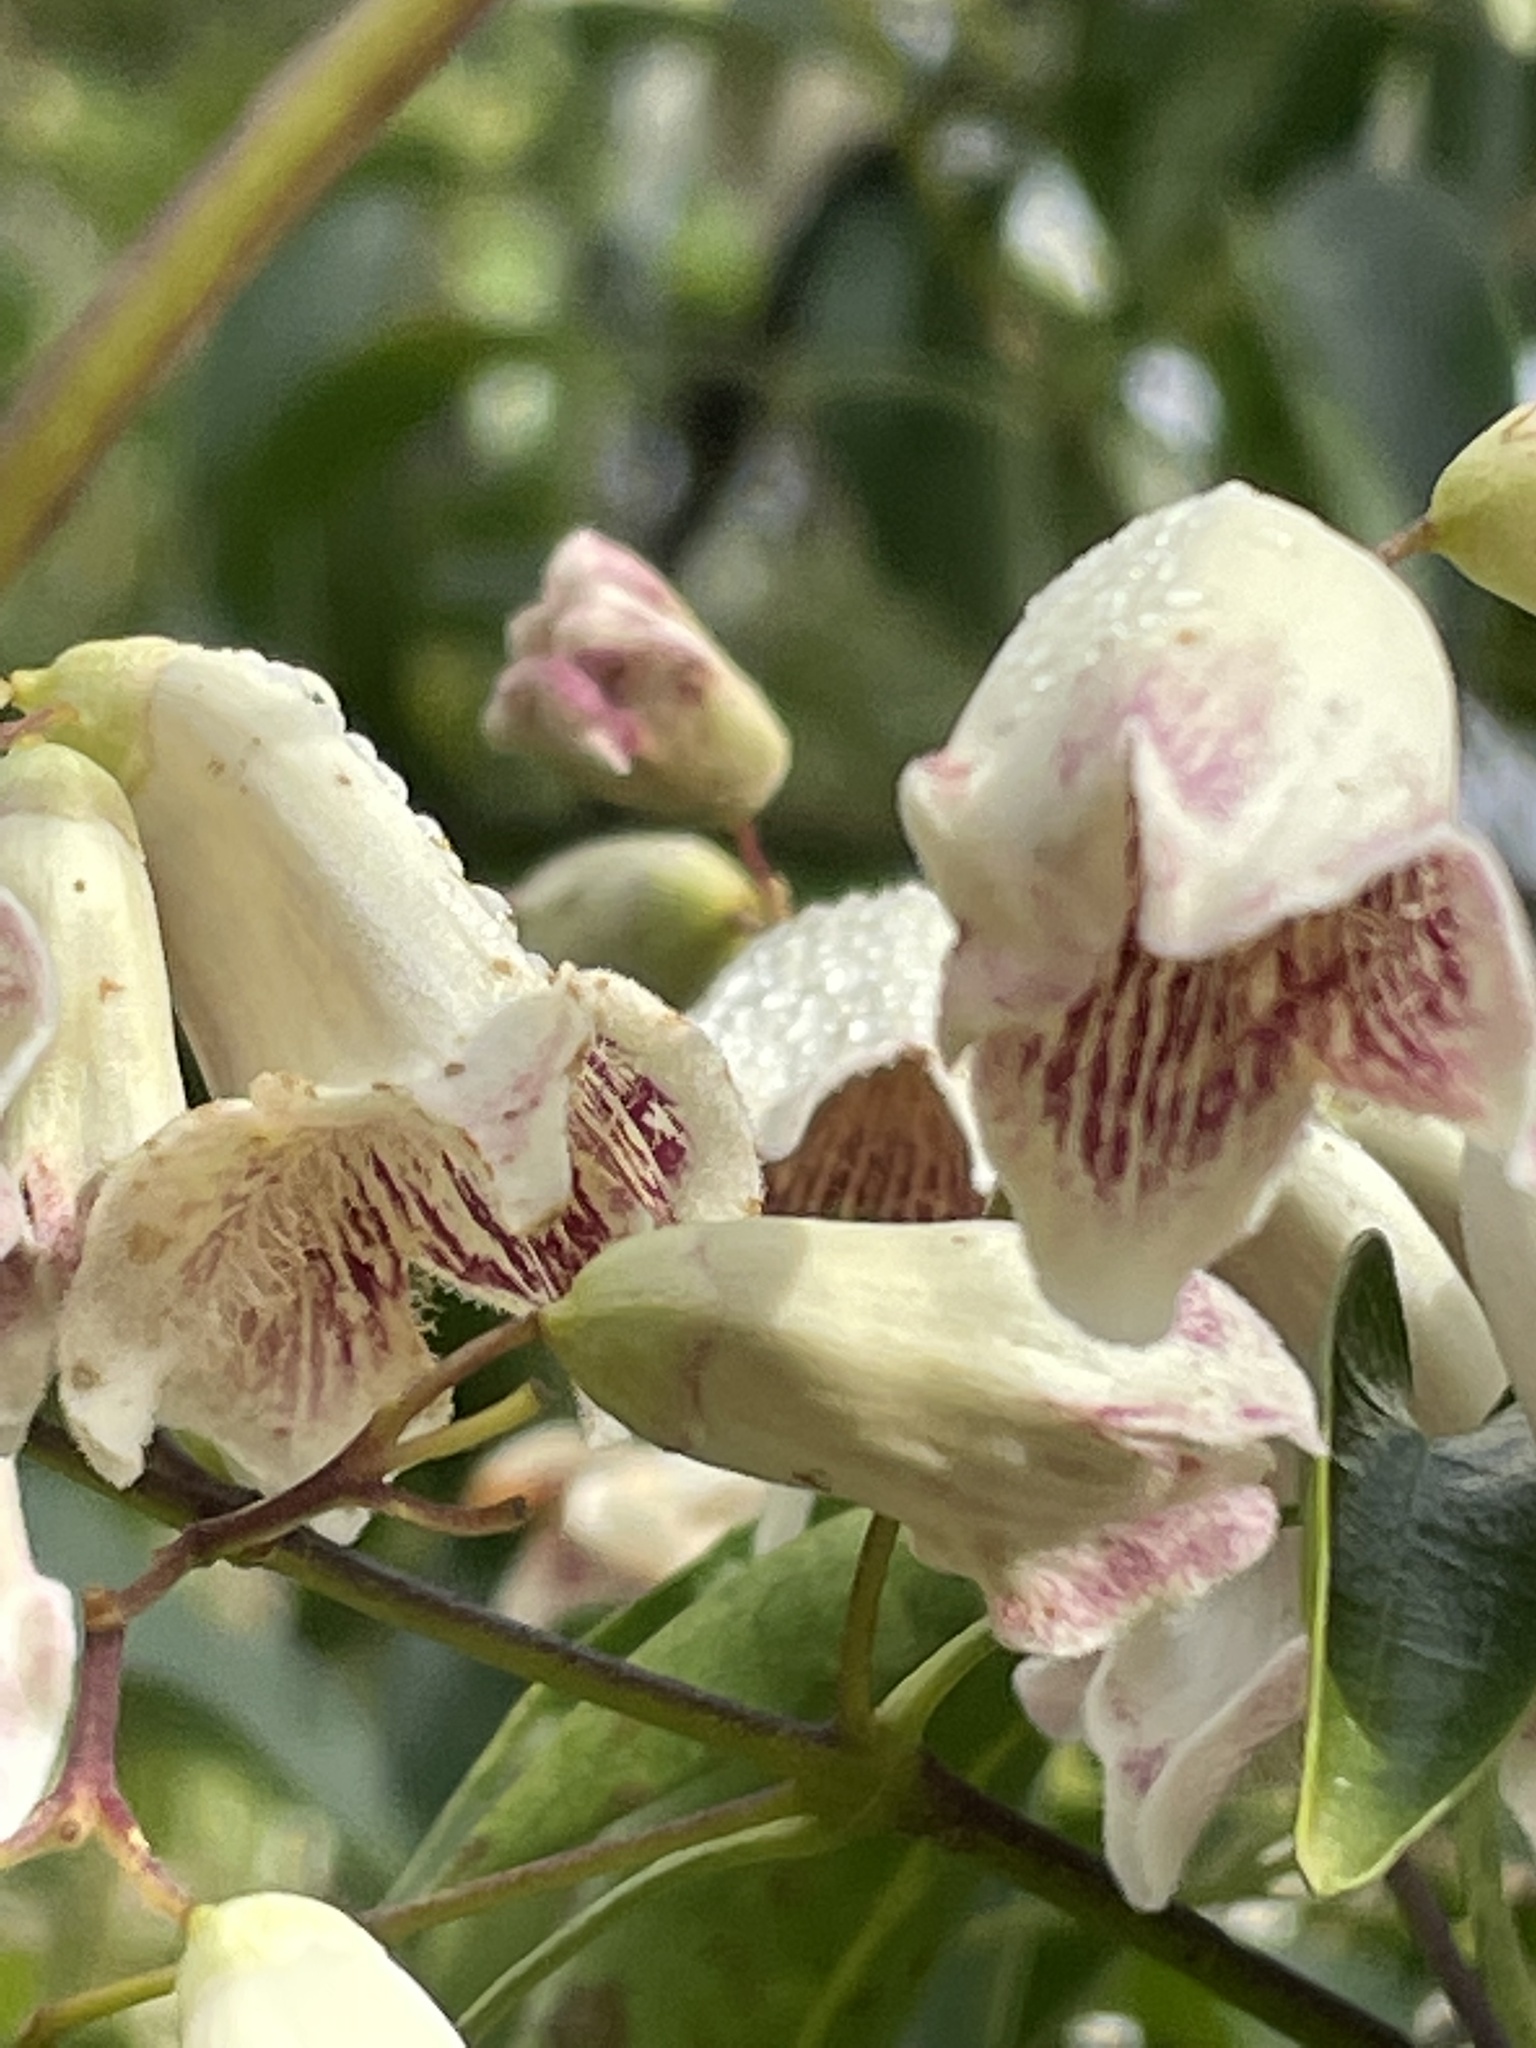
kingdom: Plantae
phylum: Tracheophyta
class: Magnoliopsida
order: Lamiales
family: Bignoniaceae
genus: Pandorea
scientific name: Pandorea pandorana
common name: Wonga-wonga-vine
